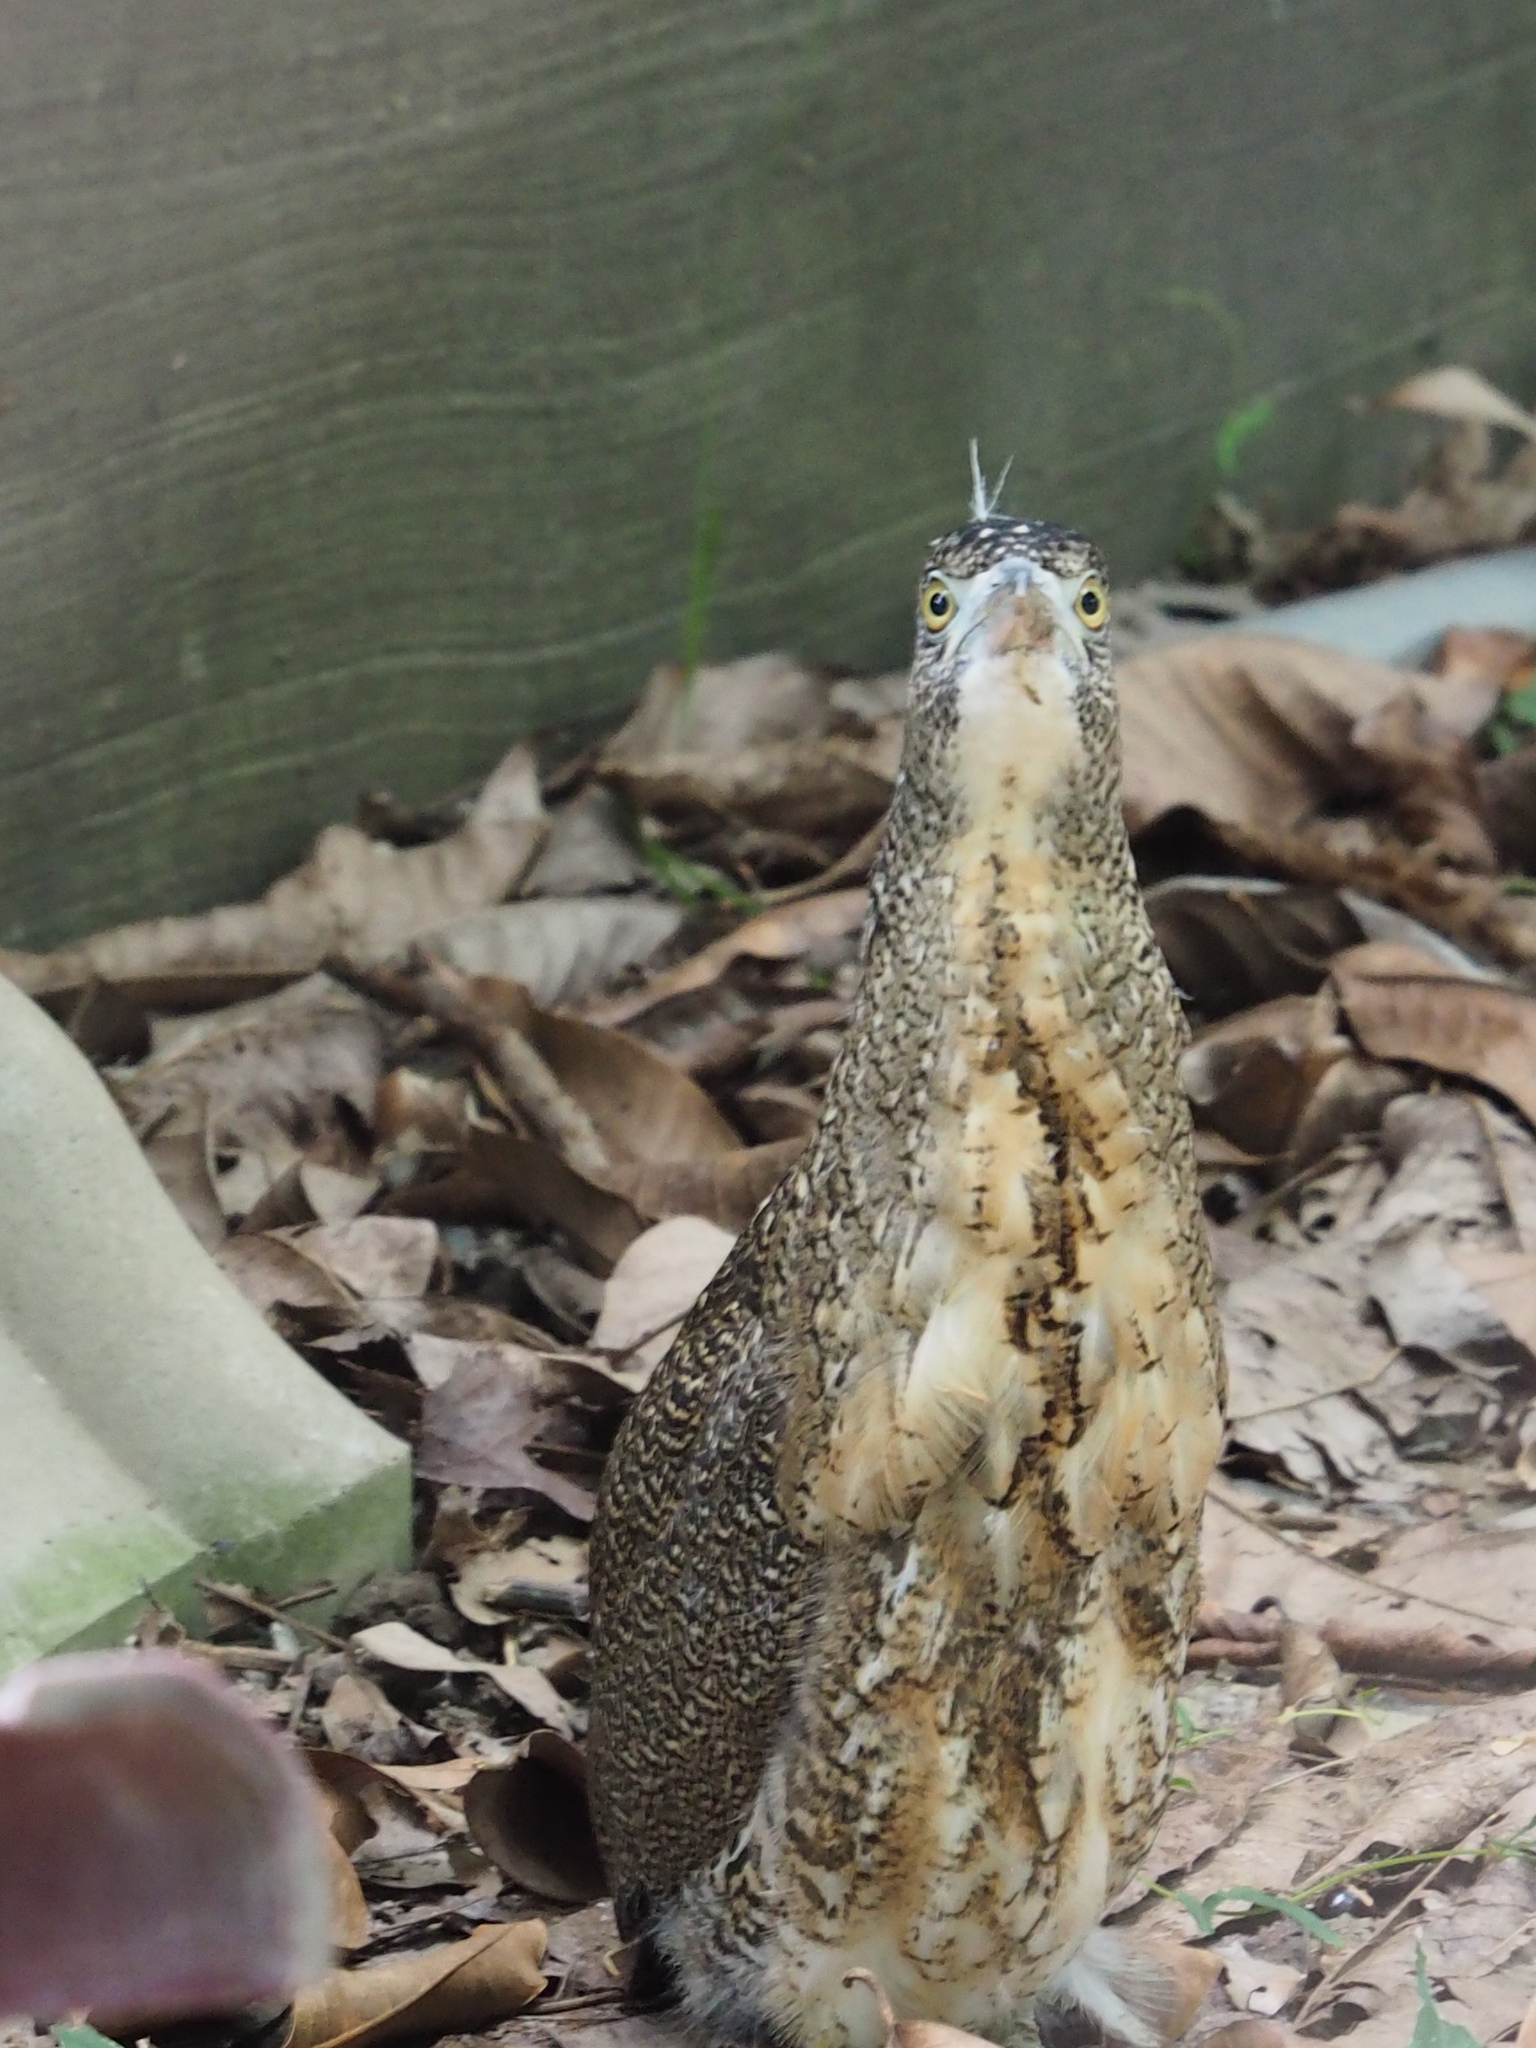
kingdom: Animalia
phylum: Chordata
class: Aves
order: Pelecaniformes
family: Ardeidae
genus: Gorsachius
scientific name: Gorsachius melanolophus
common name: Malayan night heron
